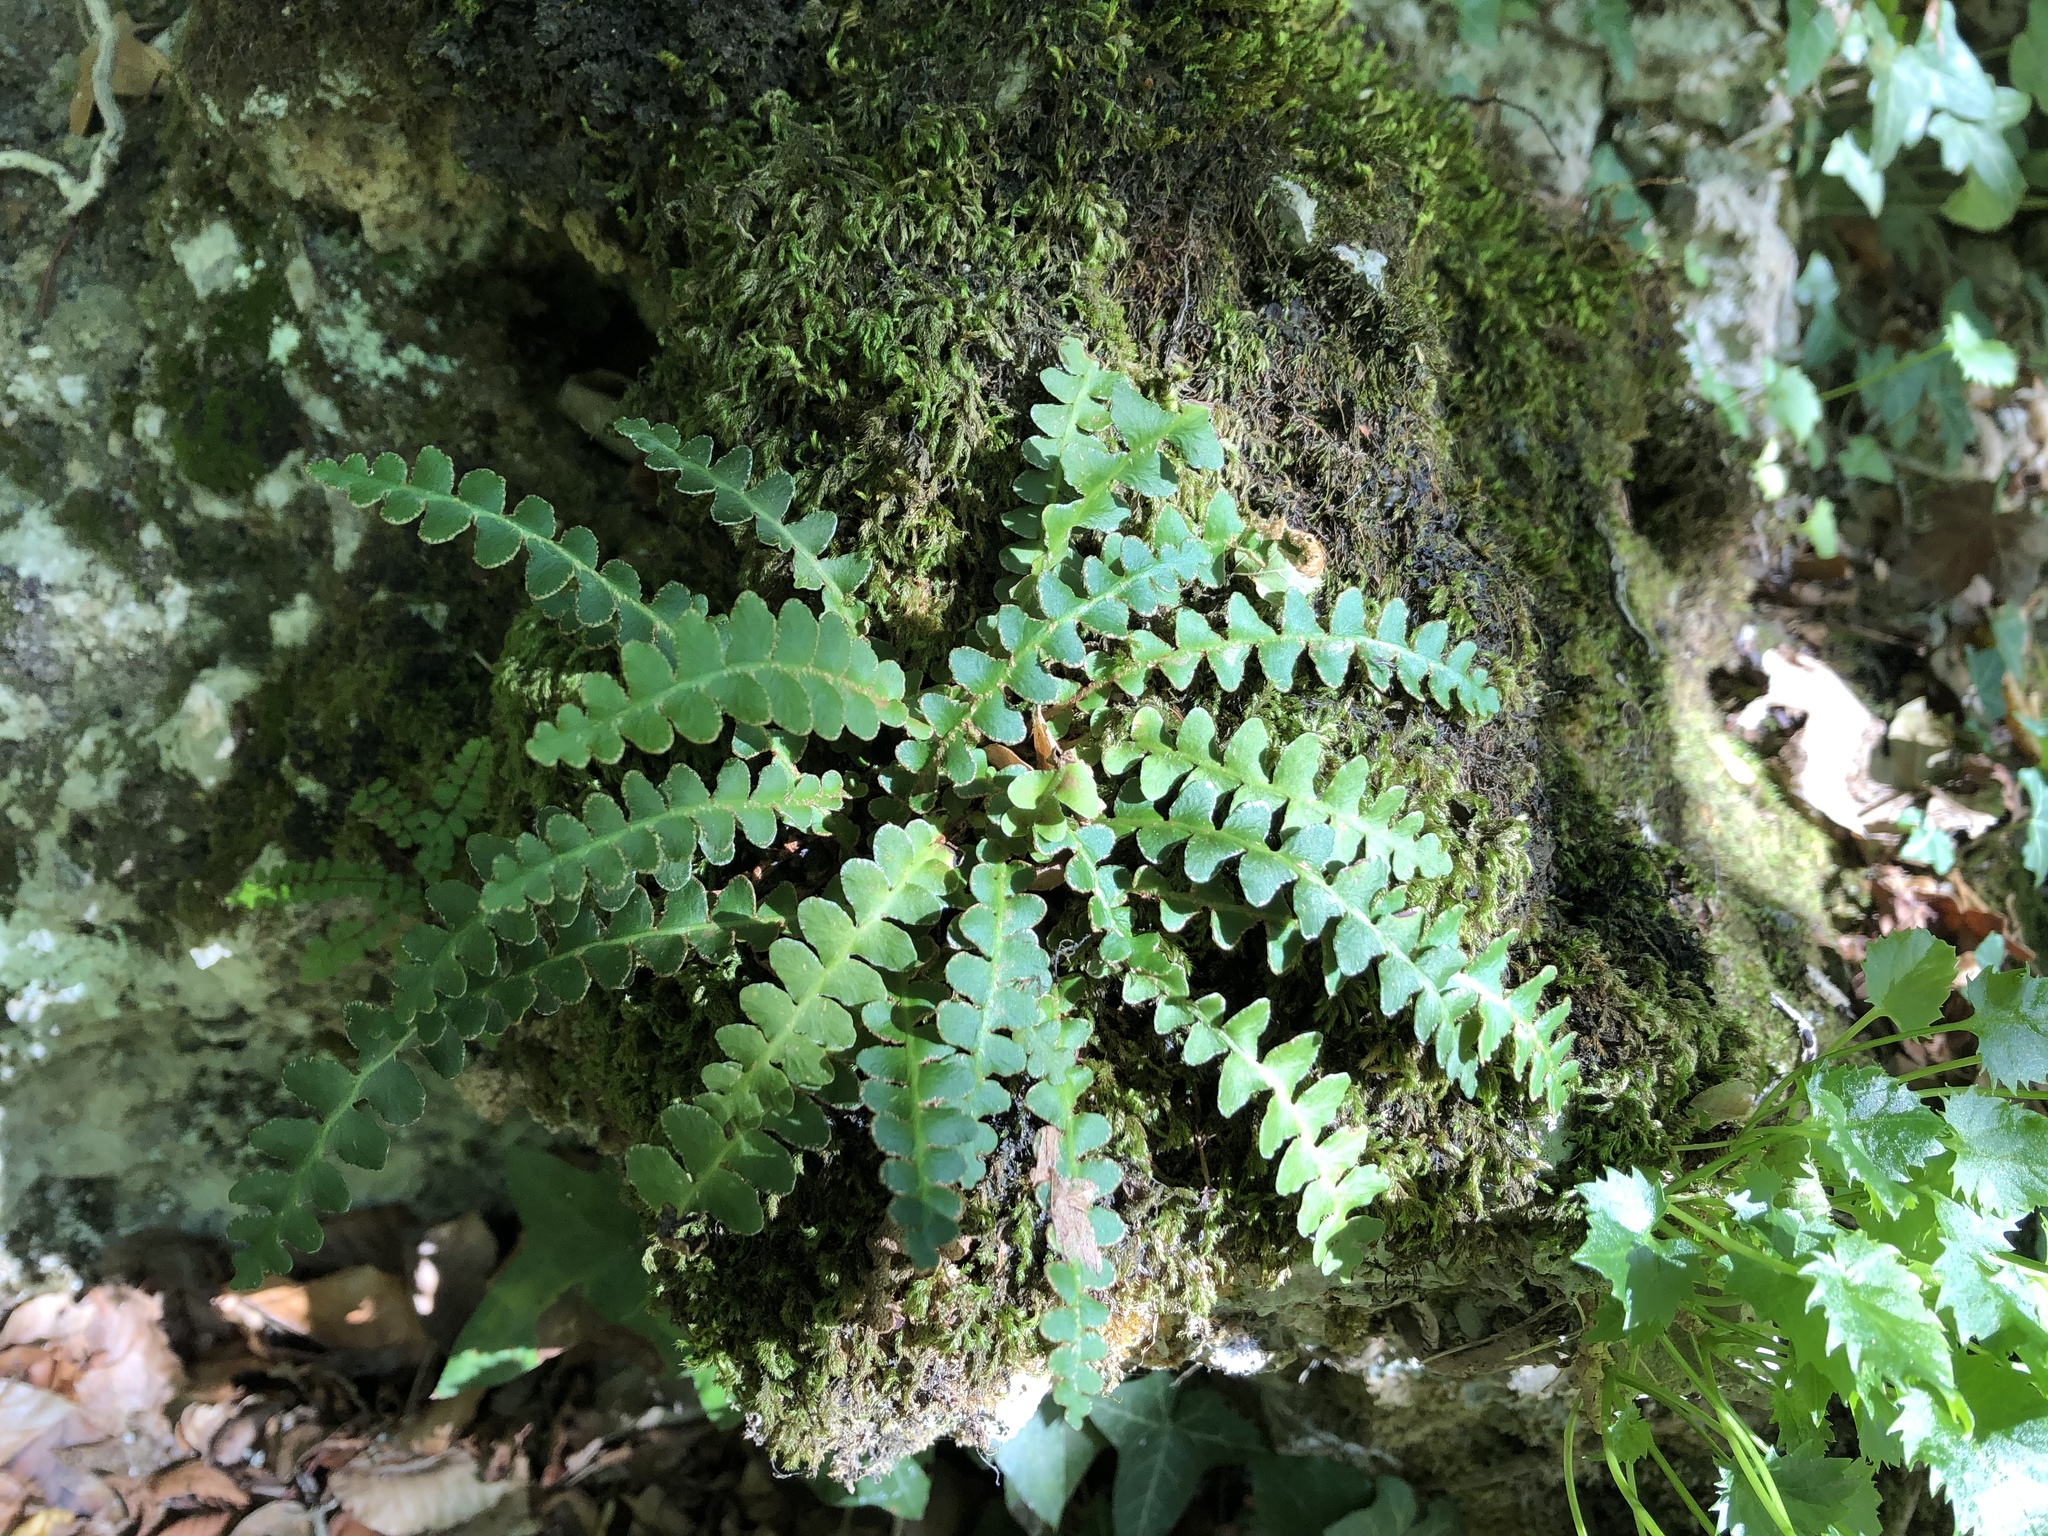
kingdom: Plantae
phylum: Tracheophyta
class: Polypodiopsida
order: Polypodiales
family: Aspleniaceae
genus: Asplenium
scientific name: Asplenium ceterach
